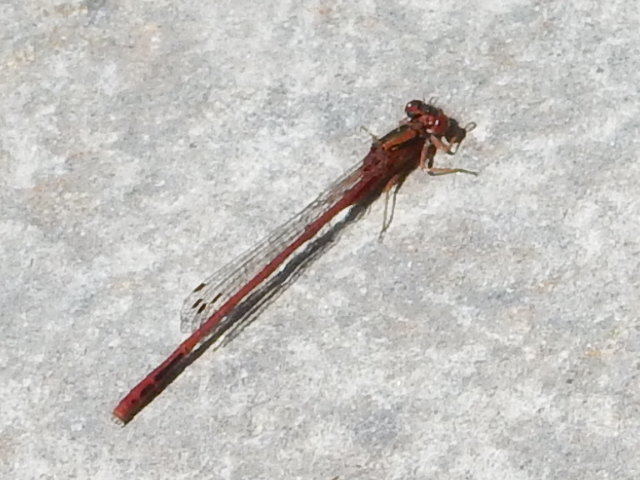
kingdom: Animalia
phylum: Arthropoda
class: Insecta
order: Odonata
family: Coenagrionidae
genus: Xanthocnemis
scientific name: Xanthocnemis zealandica
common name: Common redcoat damselfly
